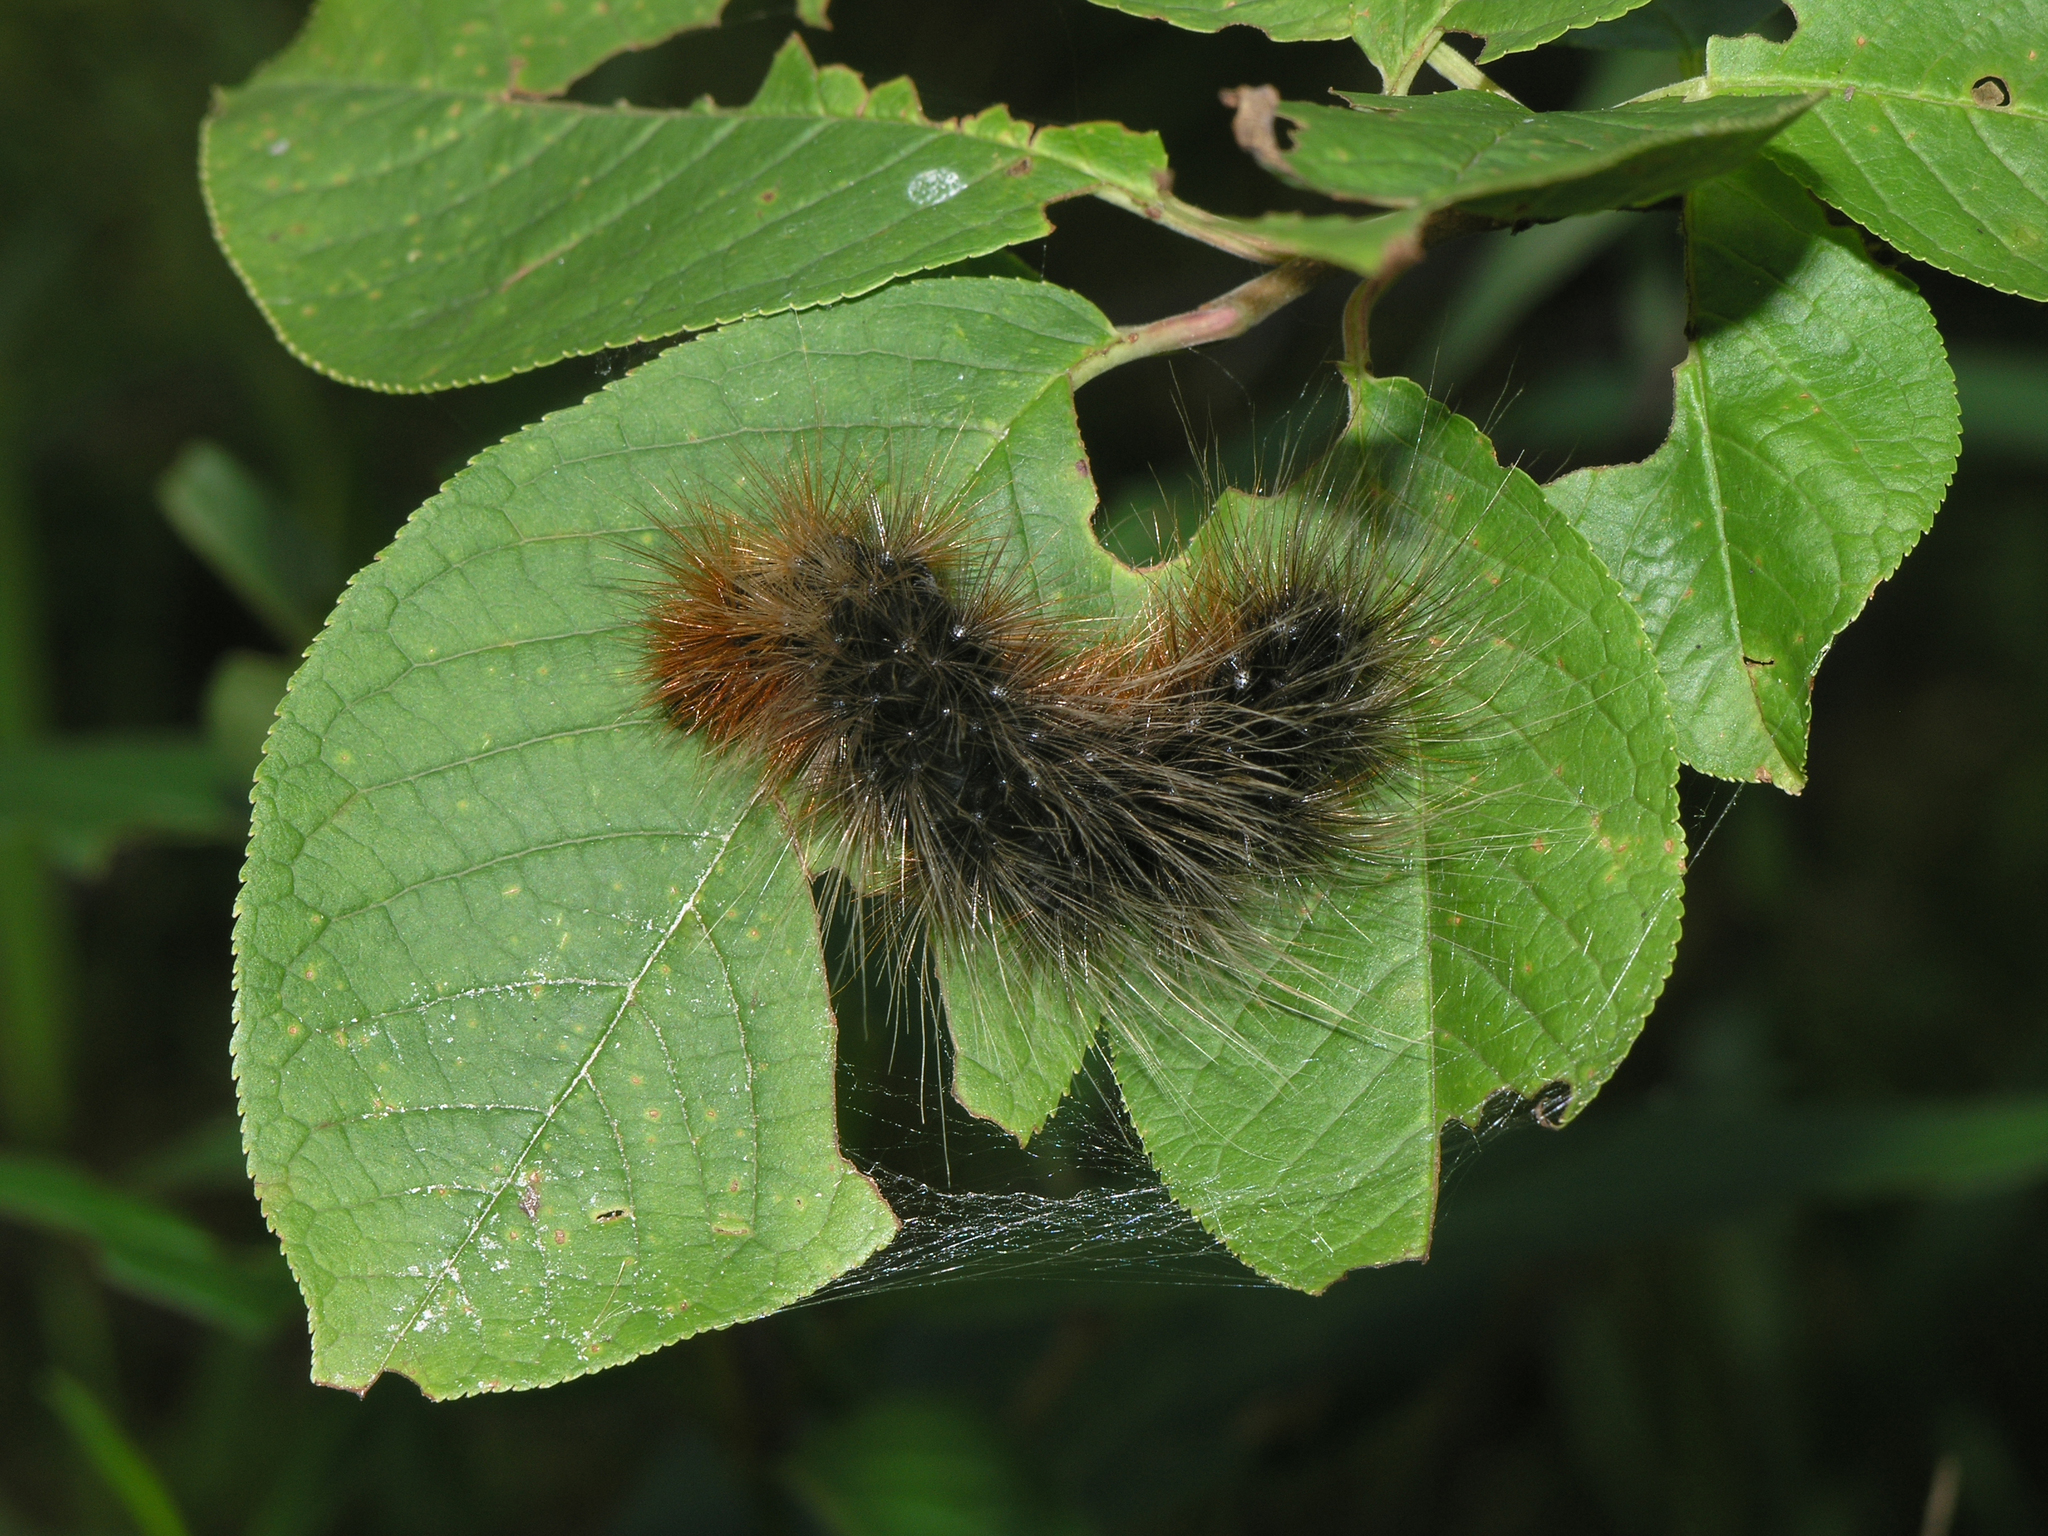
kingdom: Animalia
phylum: Arthropoda
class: Insecta
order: Lepidoptera
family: Erebidae
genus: Arctia
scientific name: Arctia caja
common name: Garden tiger
